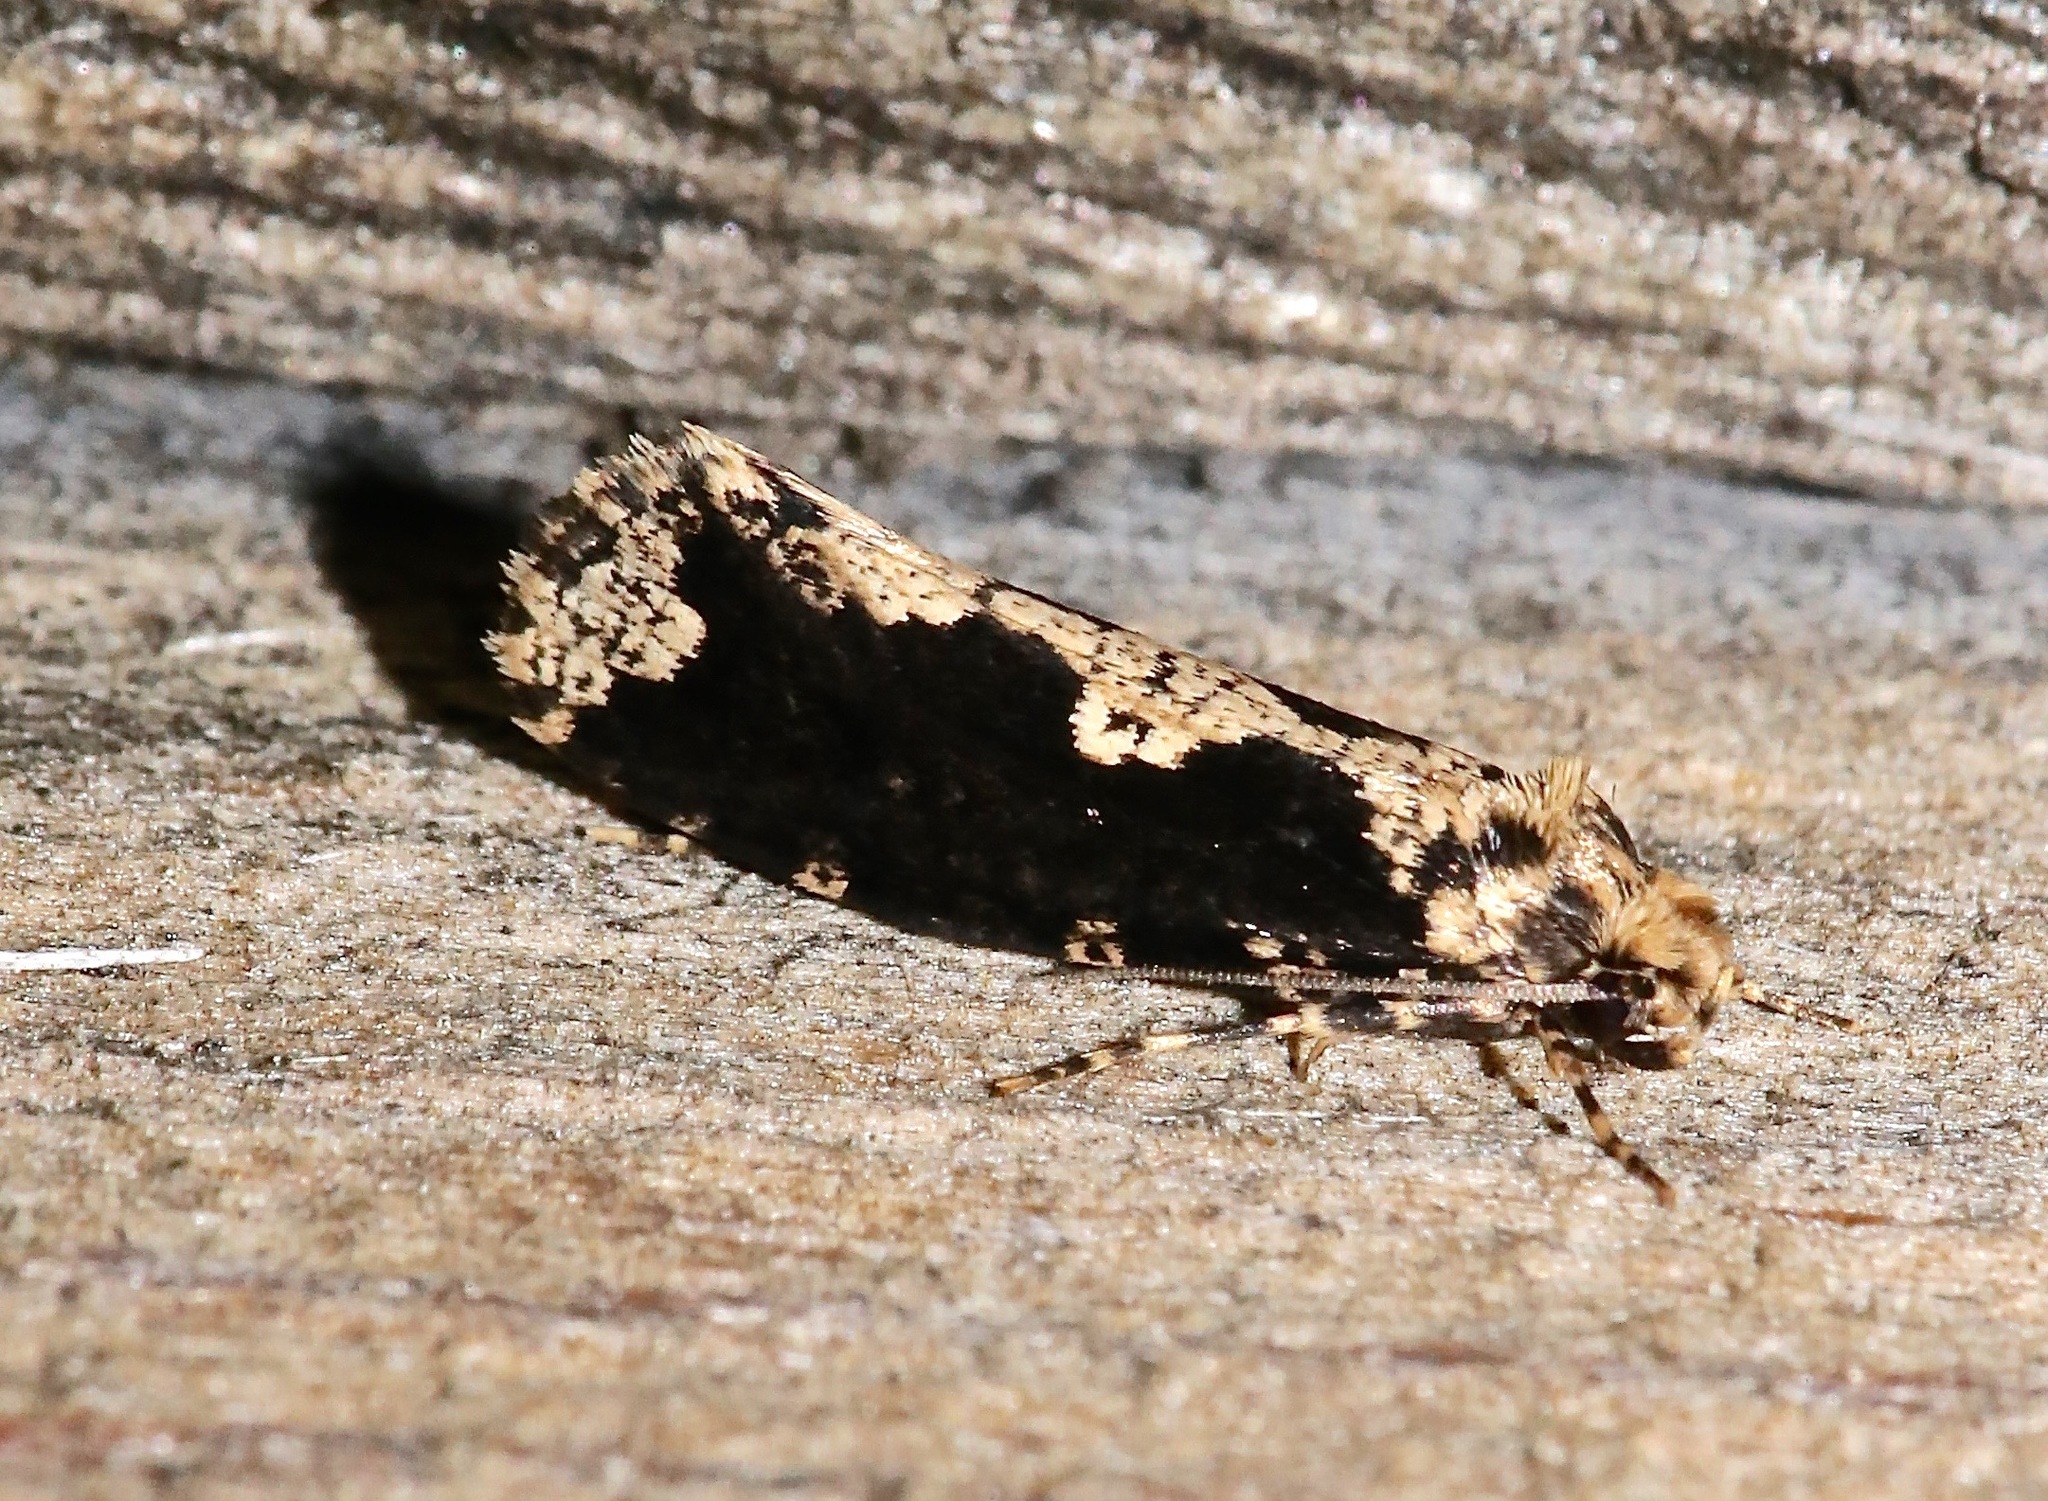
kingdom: Animalia
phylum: Arthropoda
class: Insecta
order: Lepidoptera
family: Tineidae
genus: Scardia
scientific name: Scardia anatomella
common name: Pied scardia
